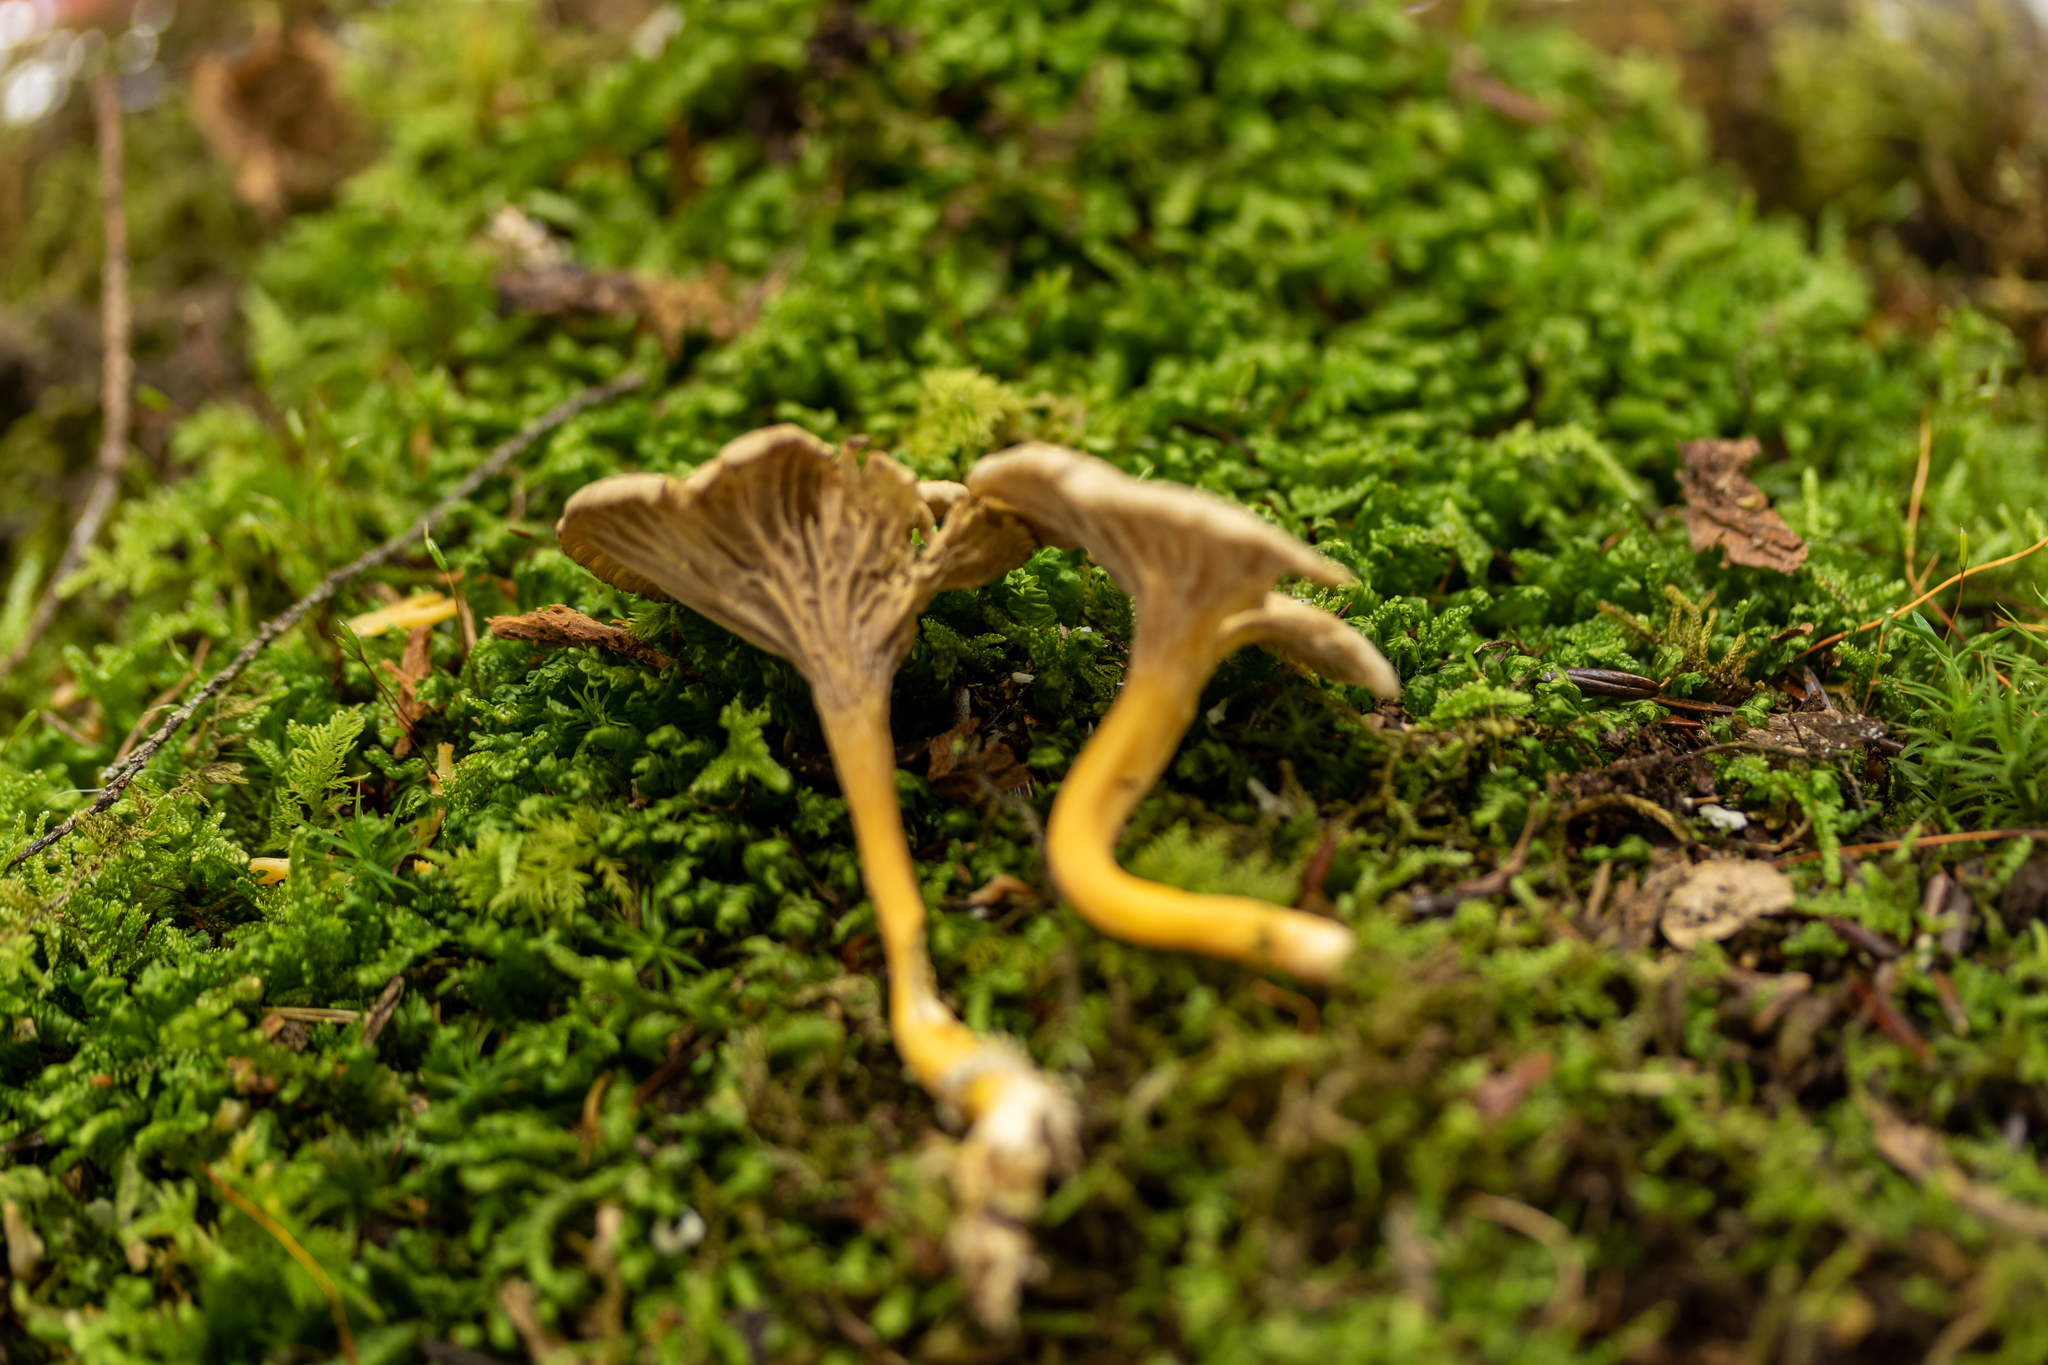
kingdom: Fungi
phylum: Basidiomycota
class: Agaricomycetes
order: Cantharellales
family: Hydnaceae
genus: Craterellus
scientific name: Craterellus tubaeformis
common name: Yellowfoot
